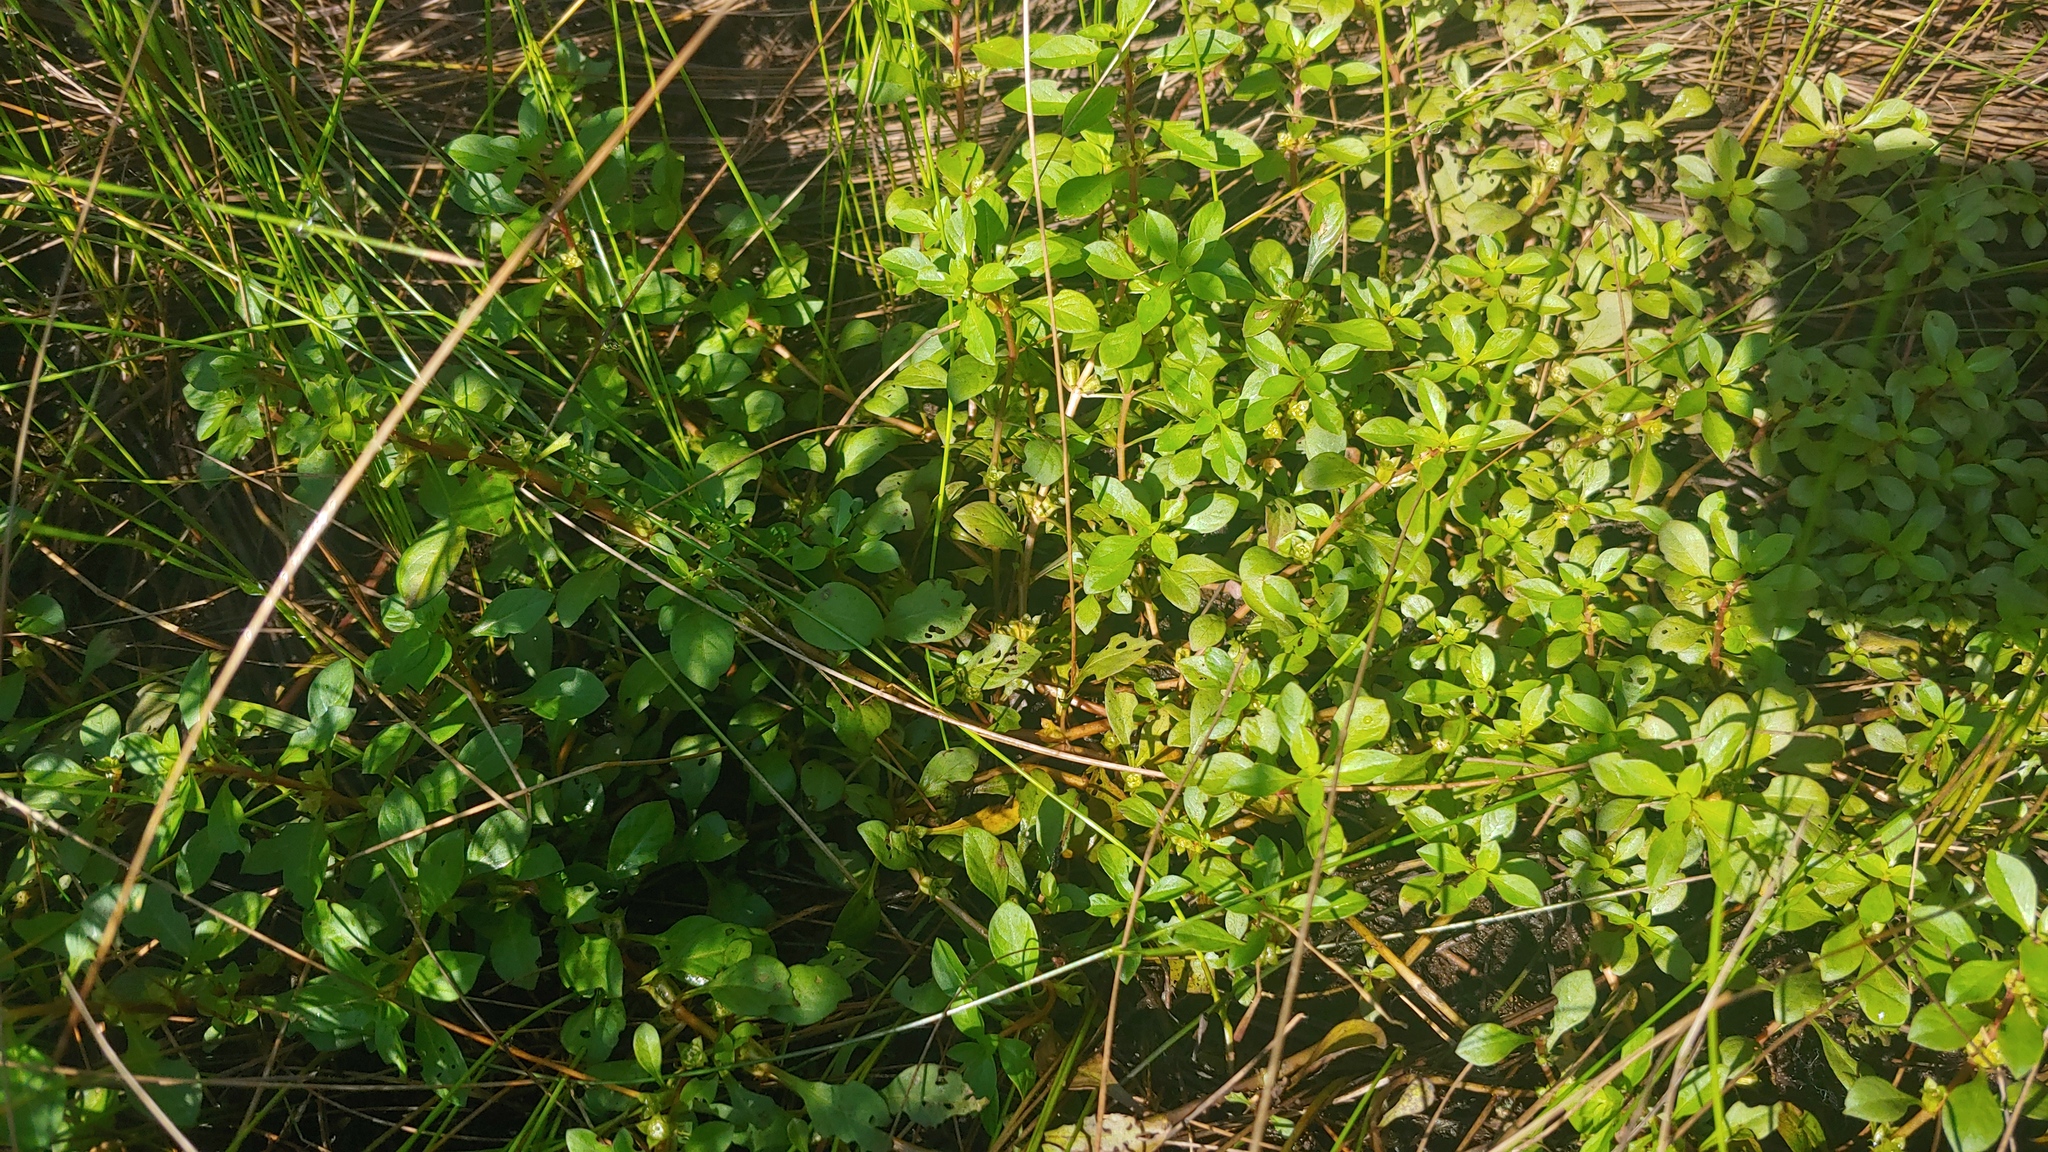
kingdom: Plantae
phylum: Tracheophyta
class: Magnoliopsida
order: Myrtales
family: Onagraceae
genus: Ludwigia
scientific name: Ludwigia palustris
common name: Hampshire-purslane
